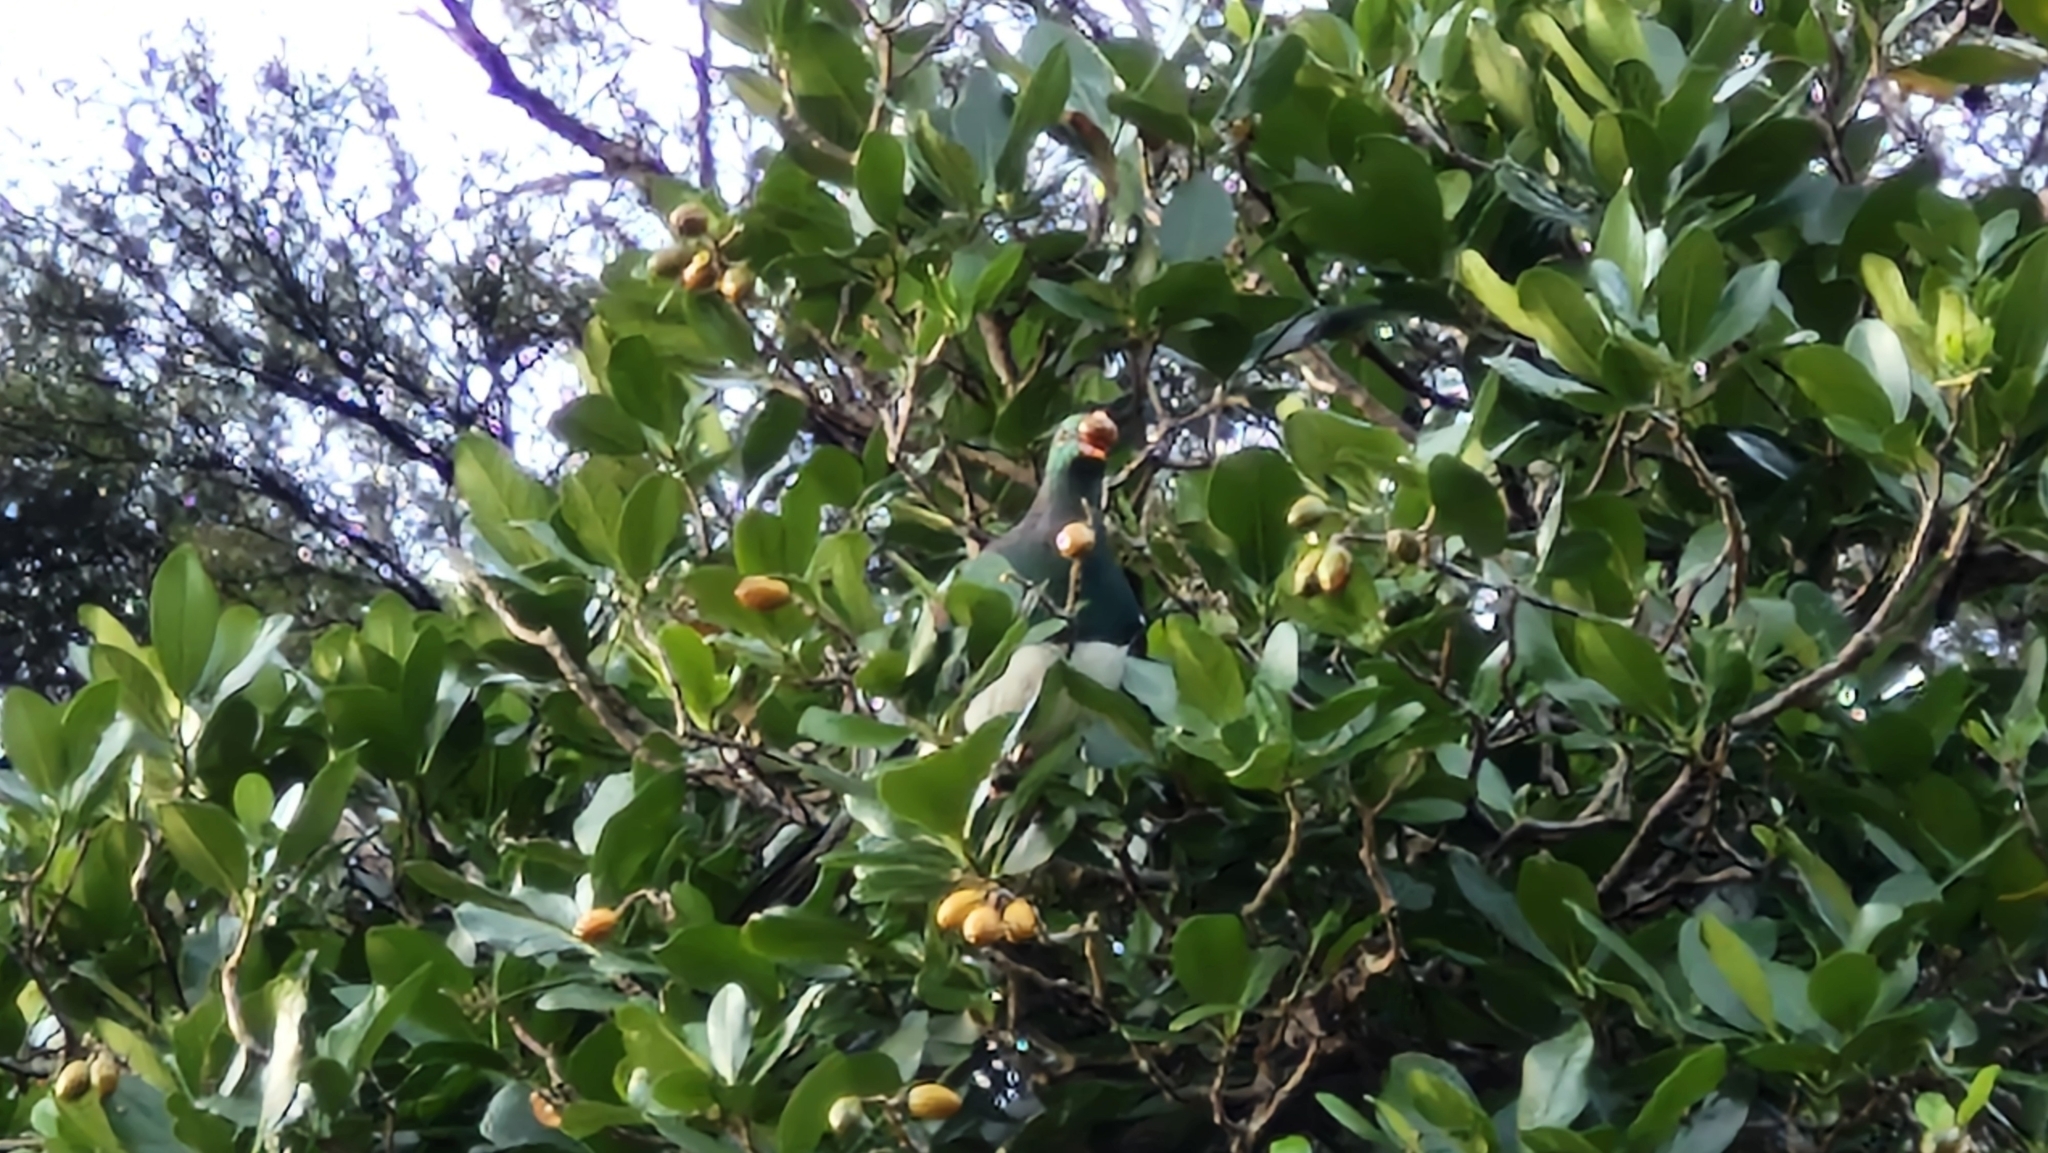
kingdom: Animalia
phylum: Chordata
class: Aves
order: Columbiformes
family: Columbidae
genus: Hemiphaga
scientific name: Hemiphaga novaeseelandiae
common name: New zealand pigeon
